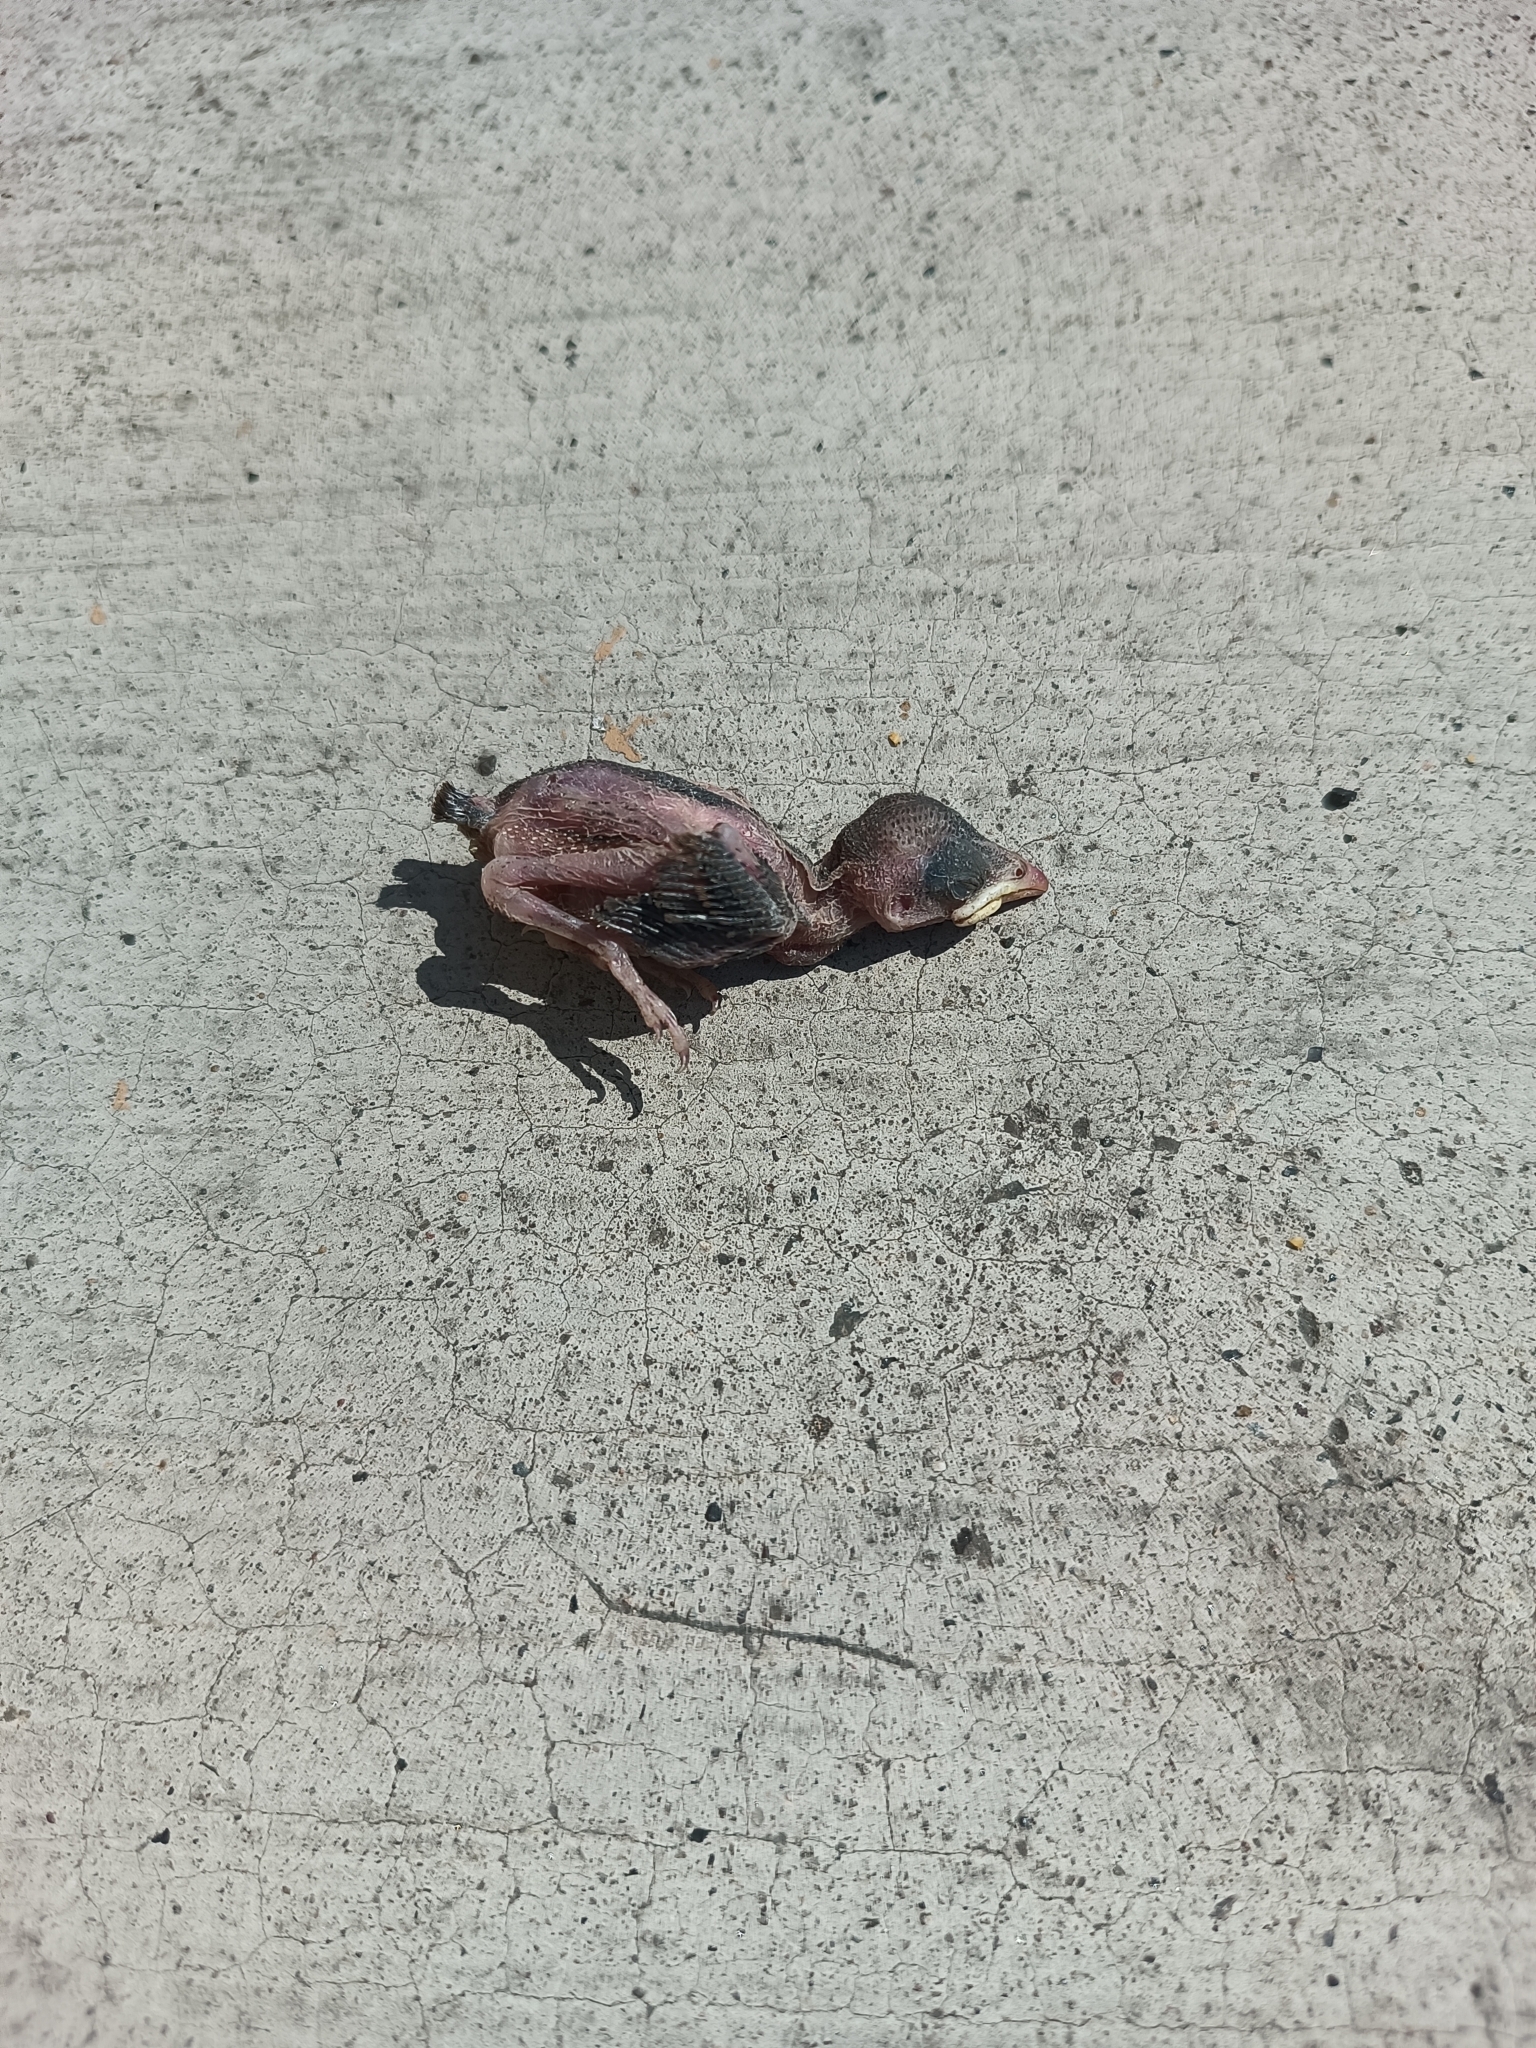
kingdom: Animalia
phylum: Chordata
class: Aves
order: Passeriformes
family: Passeridae
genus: Passer
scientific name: Passer domesticus
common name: House sparrow
